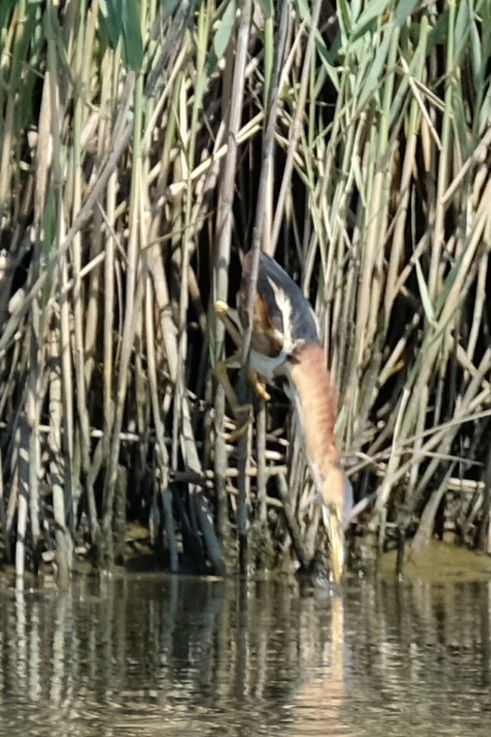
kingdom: Animalia
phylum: Chordata
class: Aves
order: Pelecaniformes
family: Ardeidae
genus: Ixobrychus
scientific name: Ixobrychus exilis
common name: Least bittern
